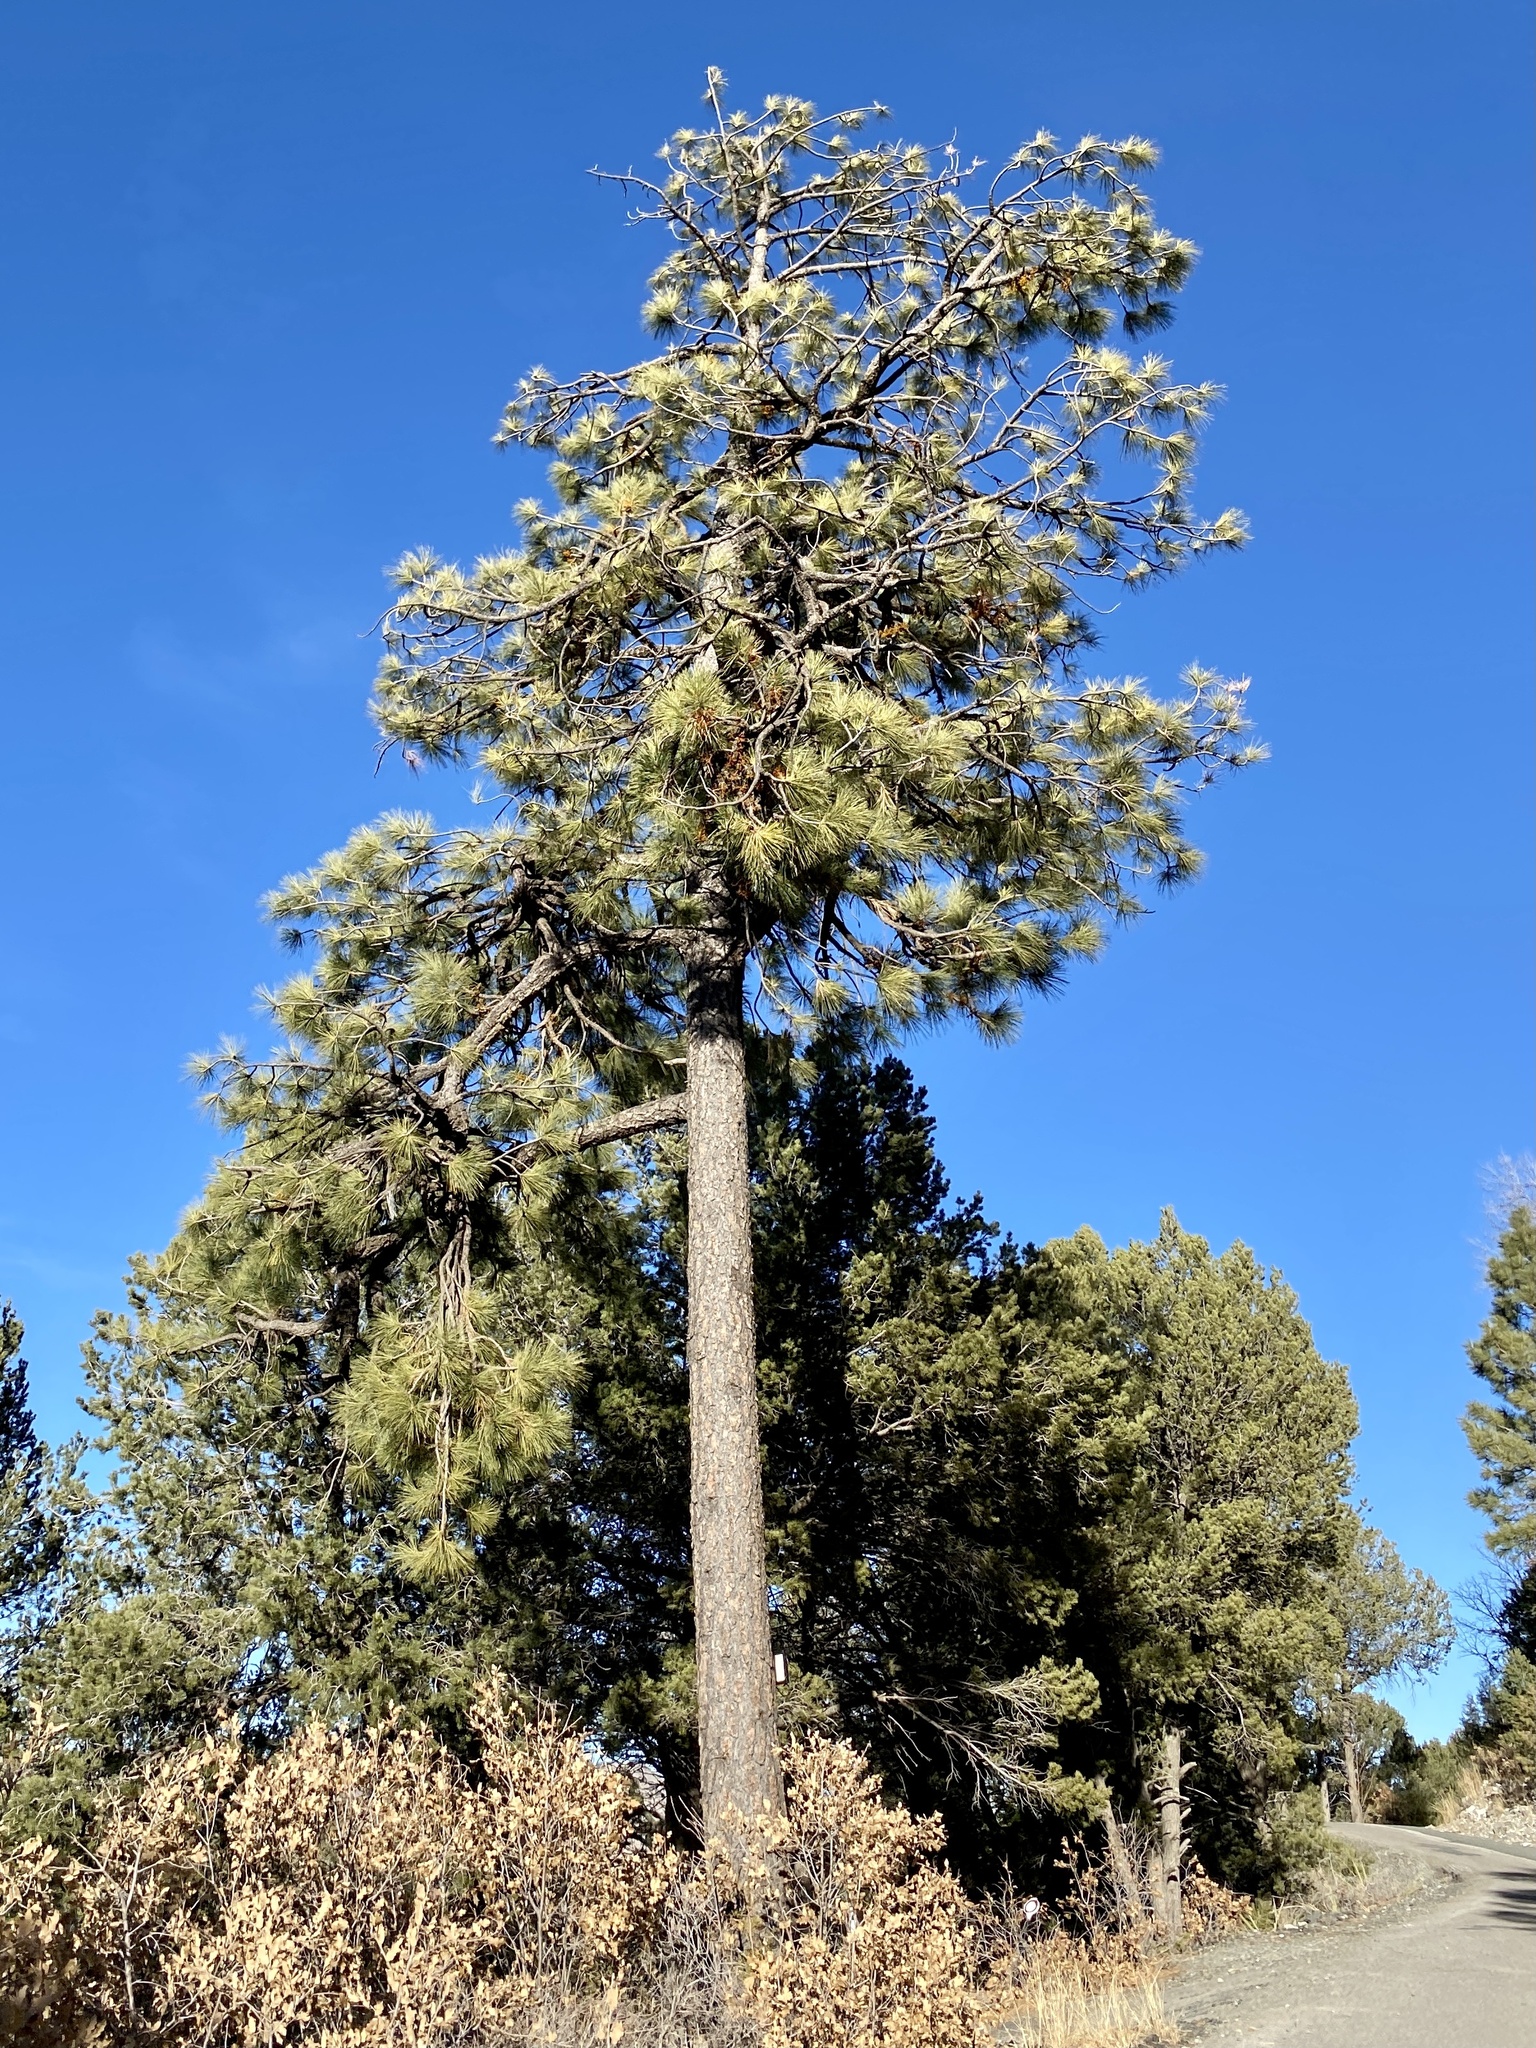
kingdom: Plantae
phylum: Tracheophyta
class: Pinopsida
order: Pinales
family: Pinaceae
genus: Pinus
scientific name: Pinus ponderosa
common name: Western yellow-pine
